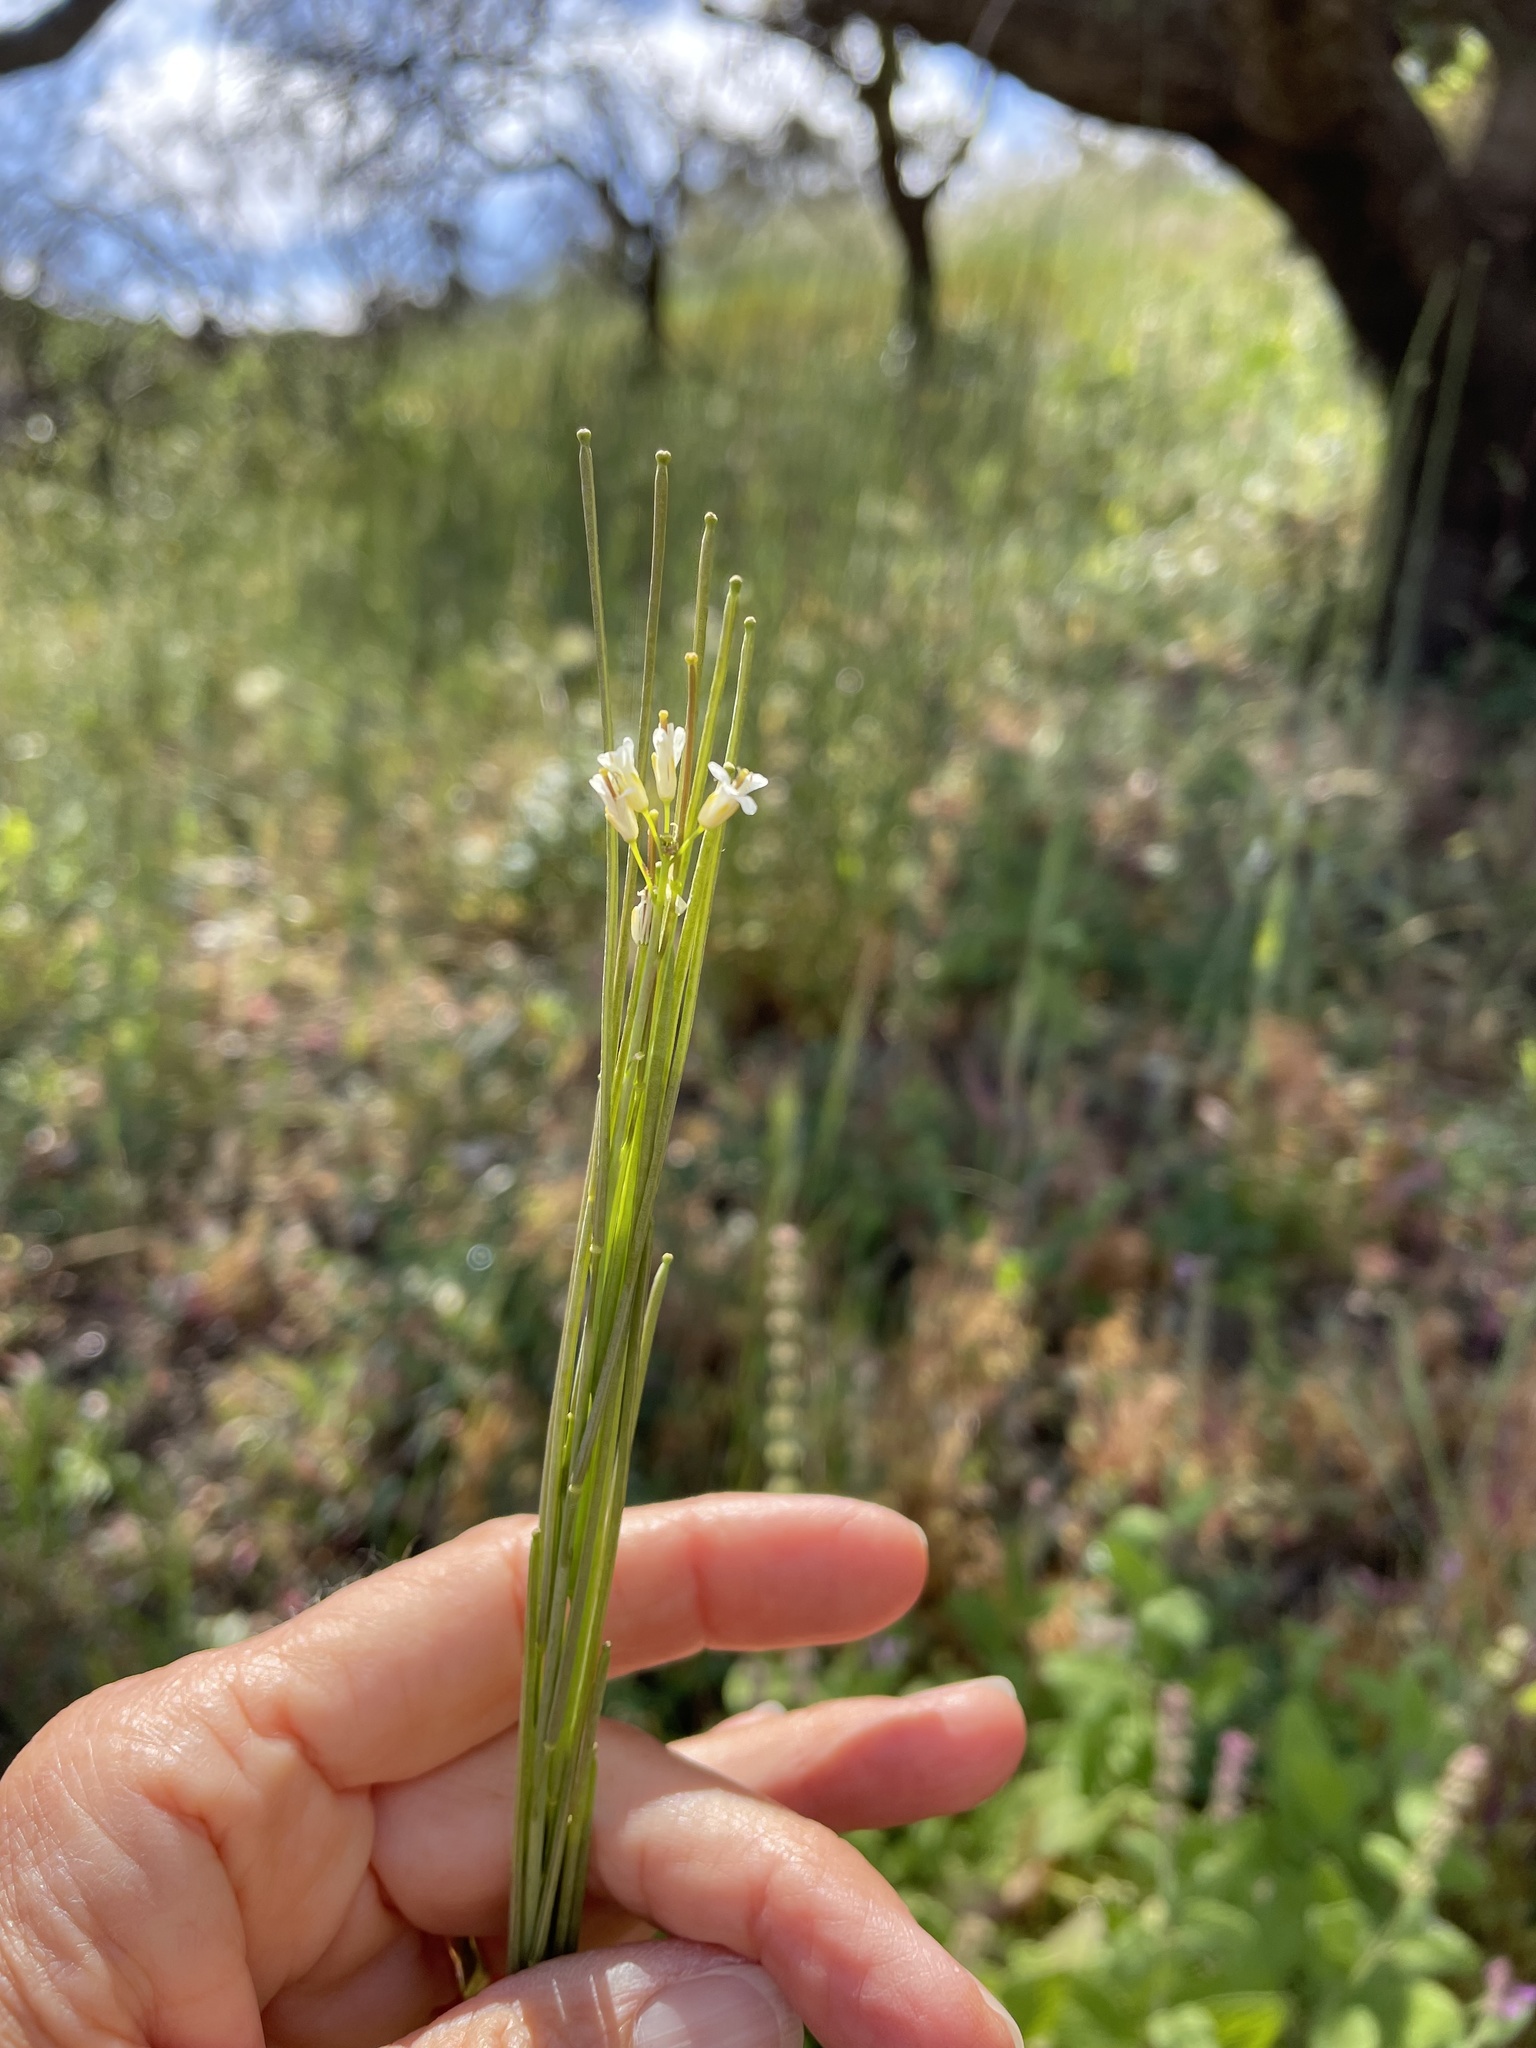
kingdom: Plantae
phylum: Tracheophyta
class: Magnoliopsida
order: Brassicales
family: Brassicaceae
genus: Turritis
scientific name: Turritis glabra
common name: Tower rockcress
